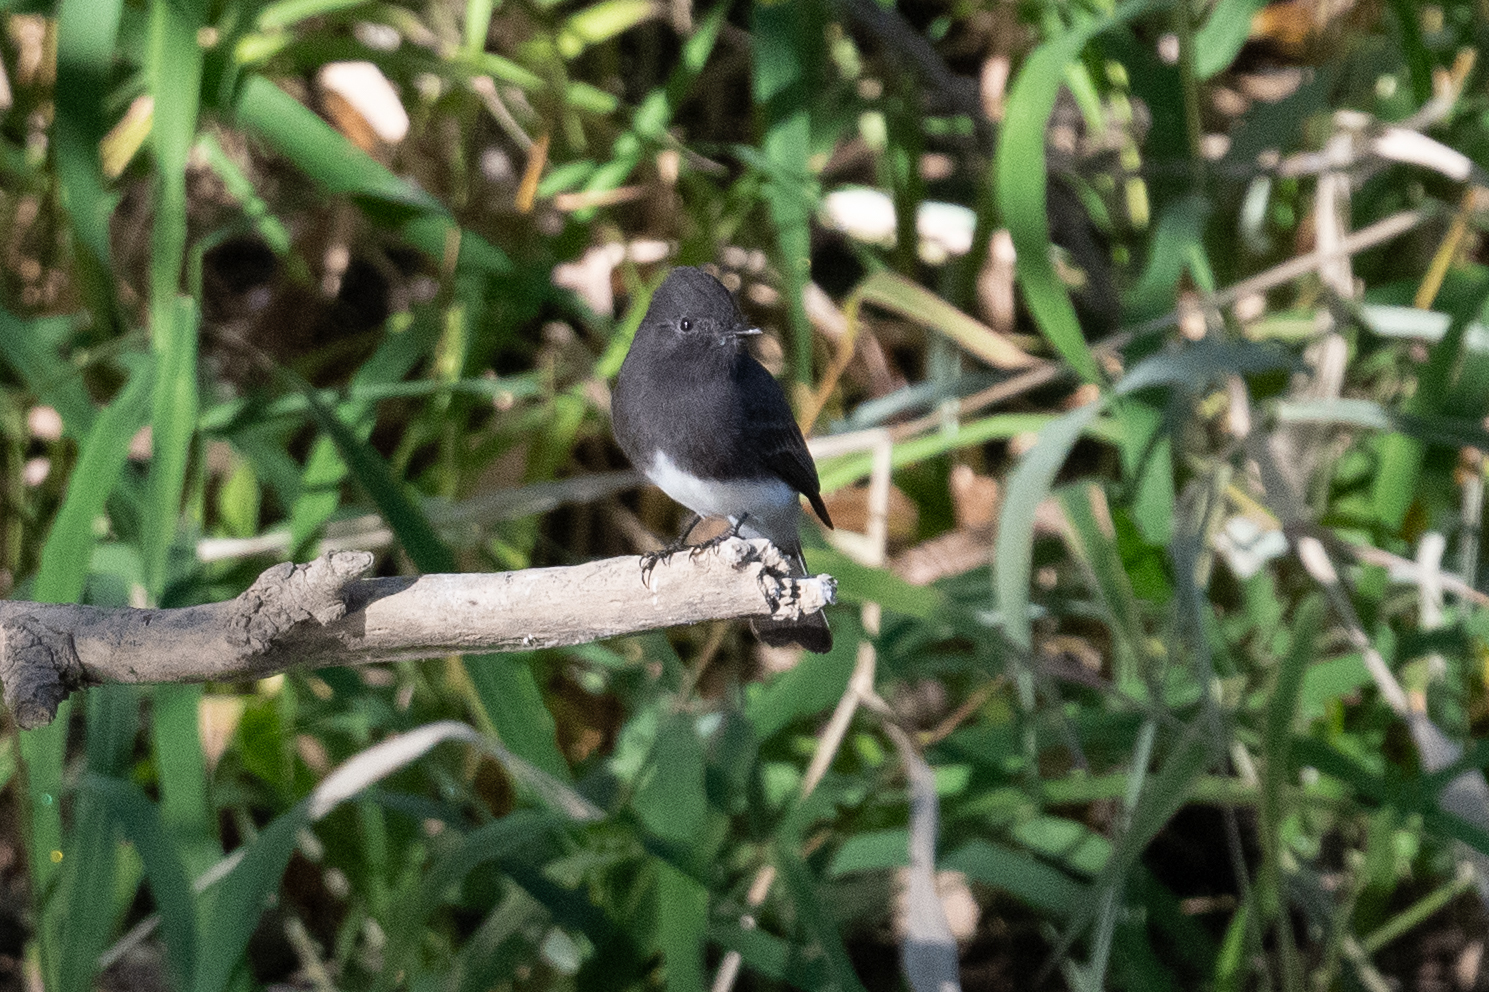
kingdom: Animalia
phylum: Chordata
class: Aves
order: Passeriformes
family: Tyrannidae
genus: Sayornis
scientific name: Sayornis nigricans
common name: Black phoebe
